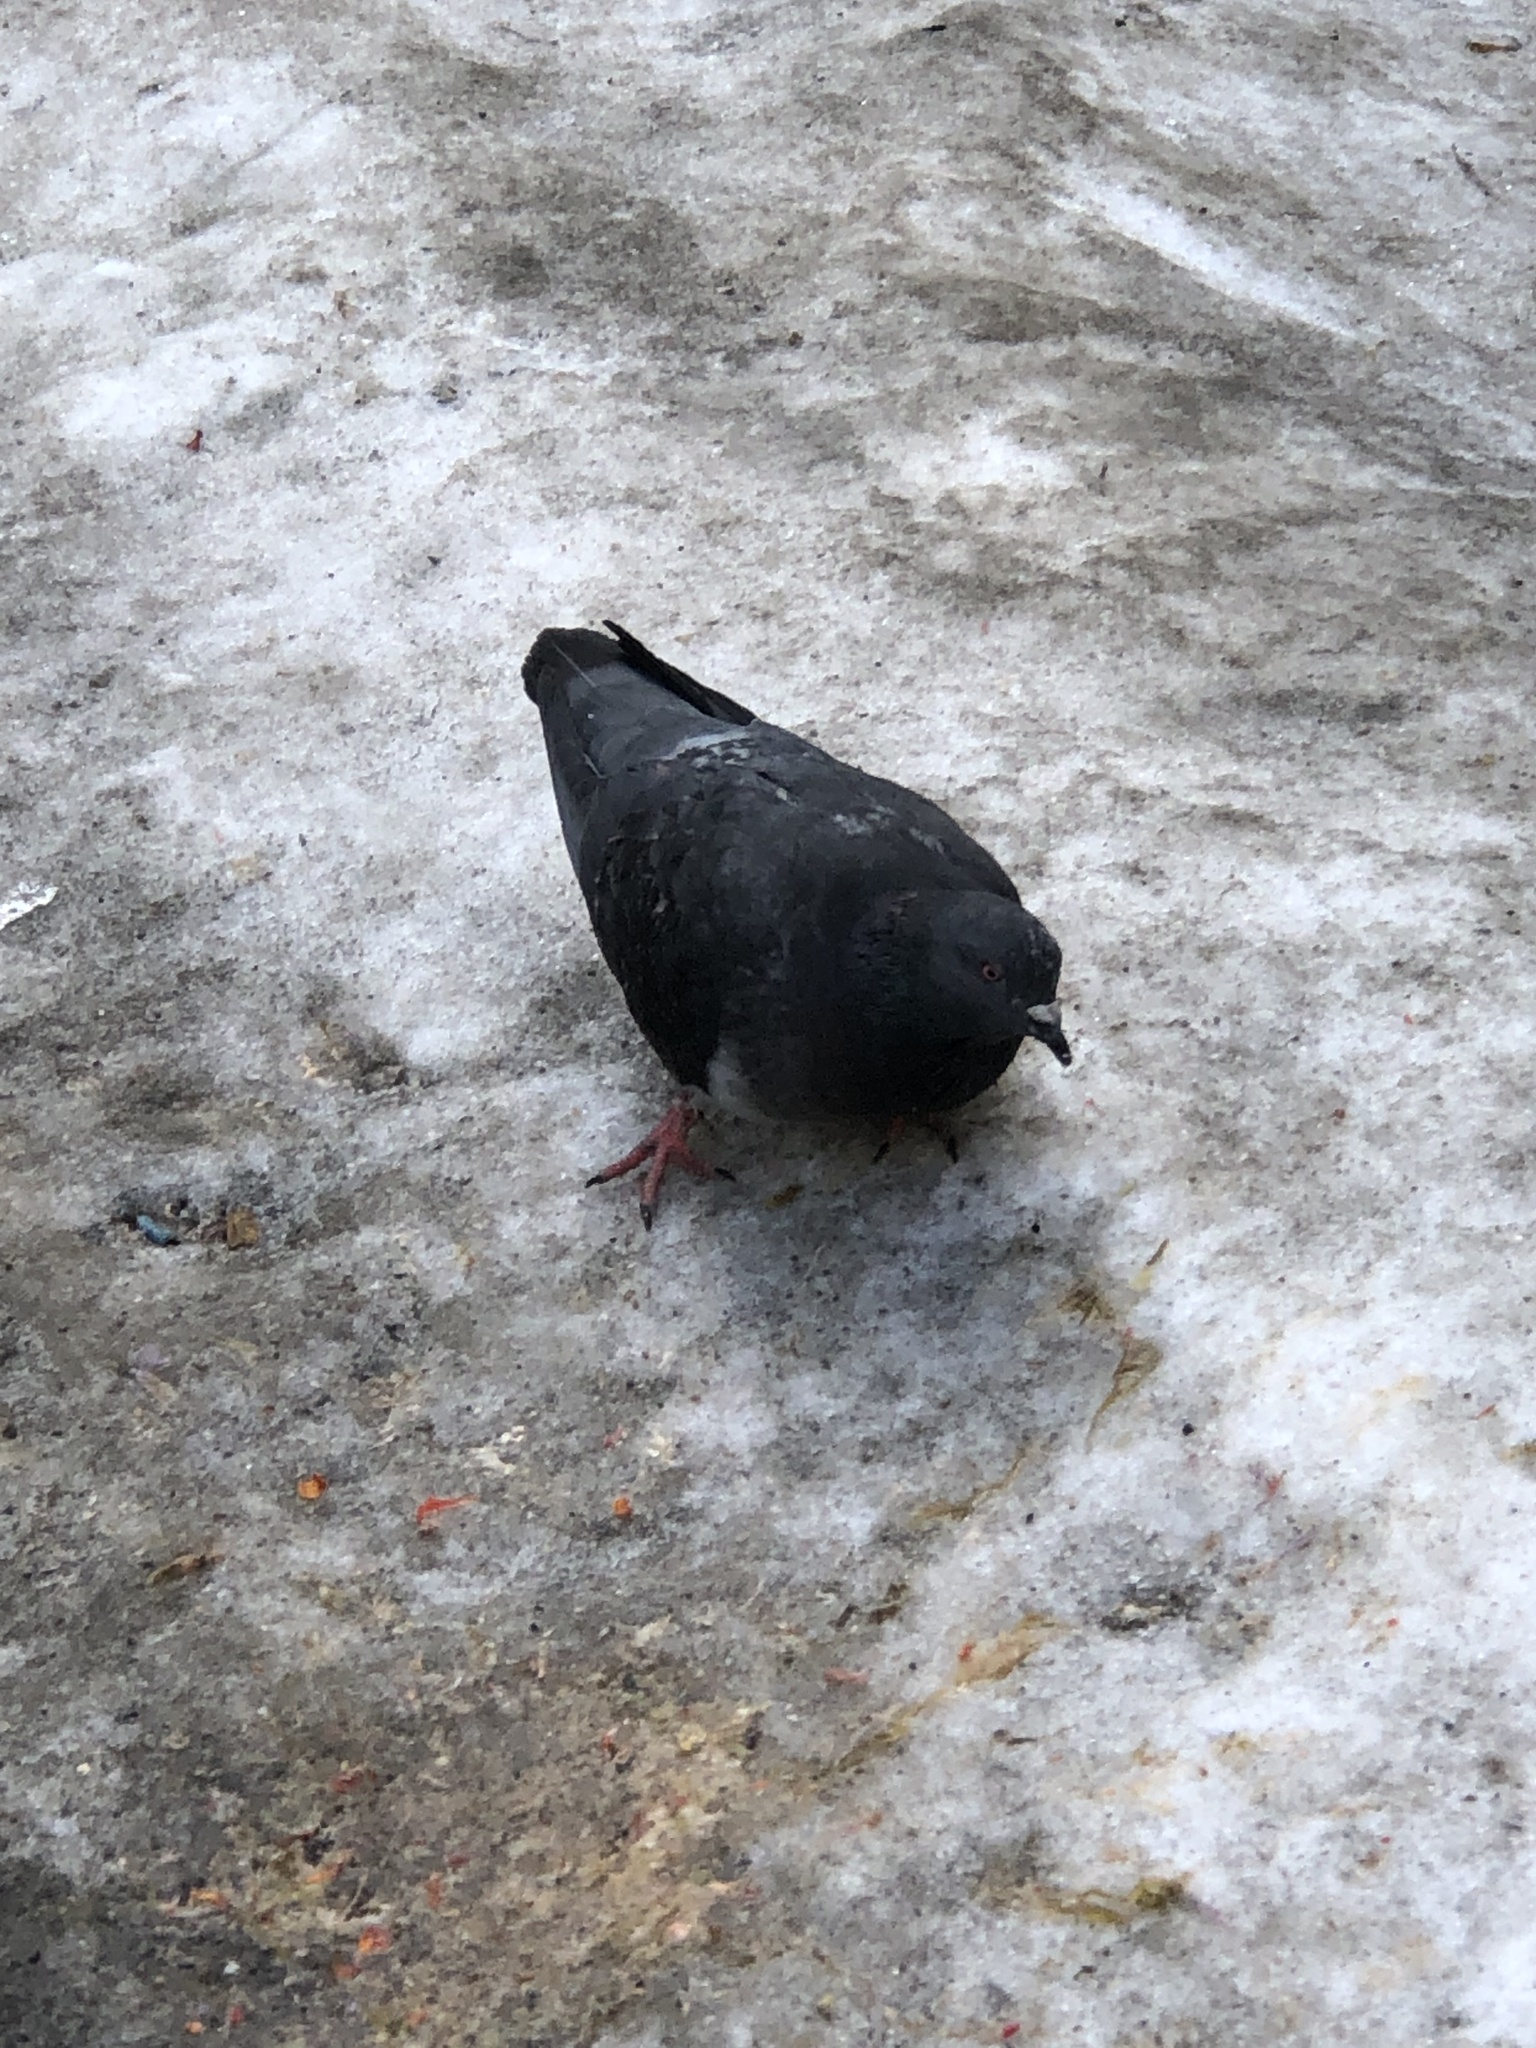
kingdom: Animalia
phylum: Chordata
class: Aves
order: Columbiformes
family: Columbidae
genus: Columba
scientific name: Columba livia
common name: Rock pigeon
